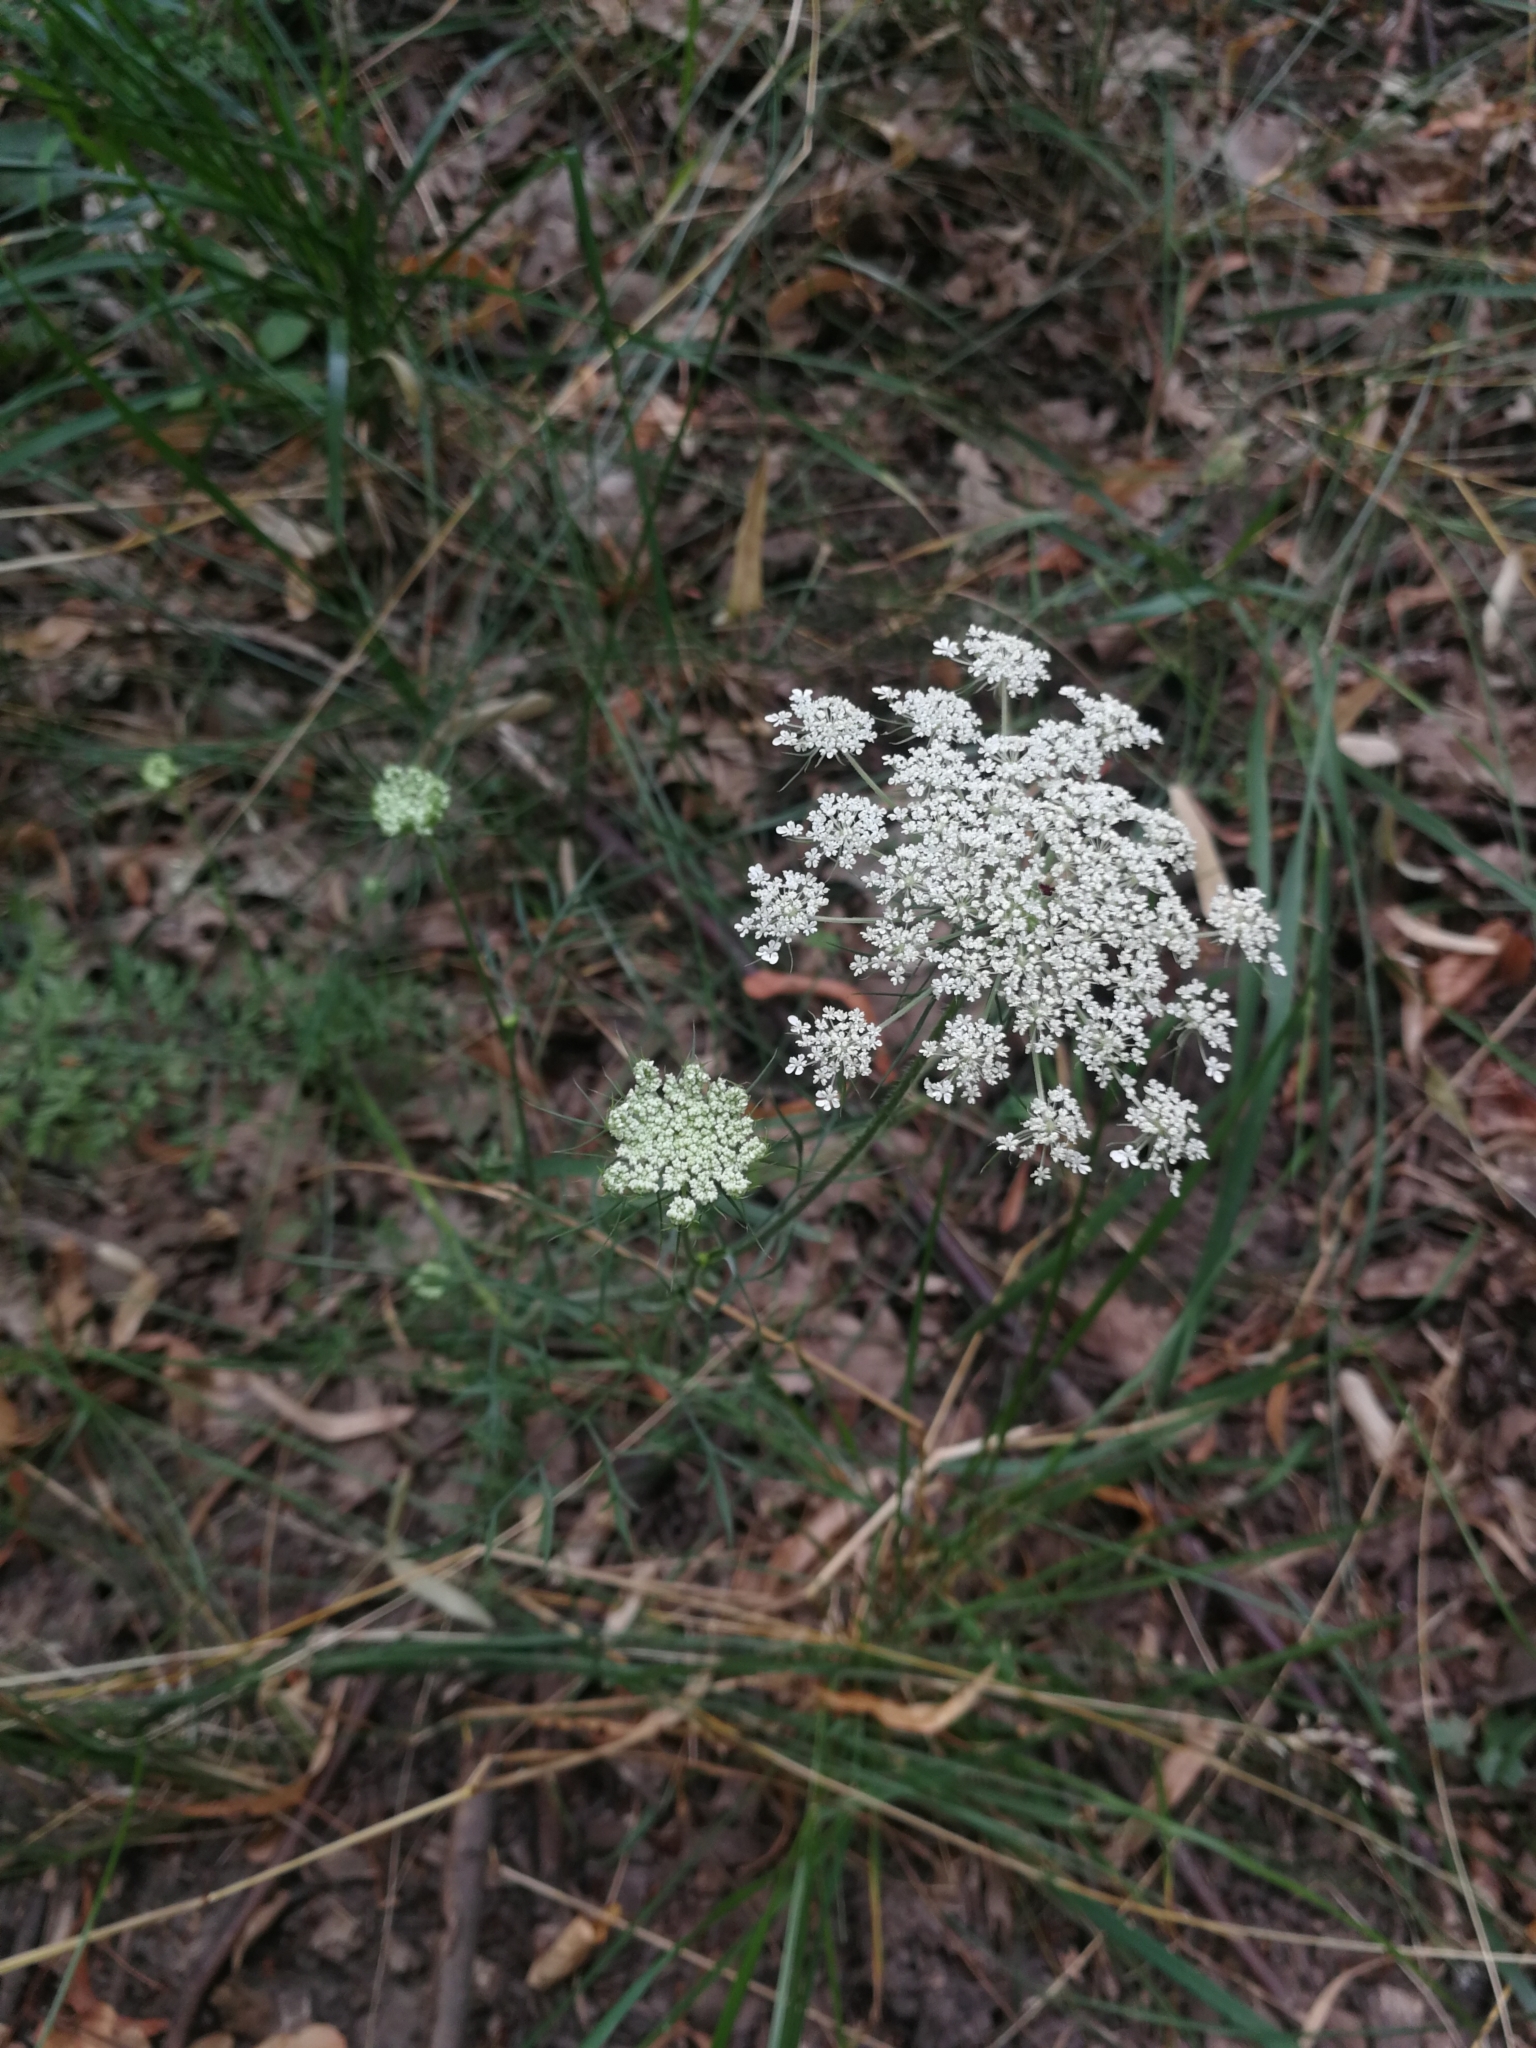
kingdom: Plantae
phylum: Tracheophyta
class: Magnoliopsida
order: Apiales
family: Apiaceae
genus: Daucus
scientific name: Daucus carota
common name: Wild carrot
